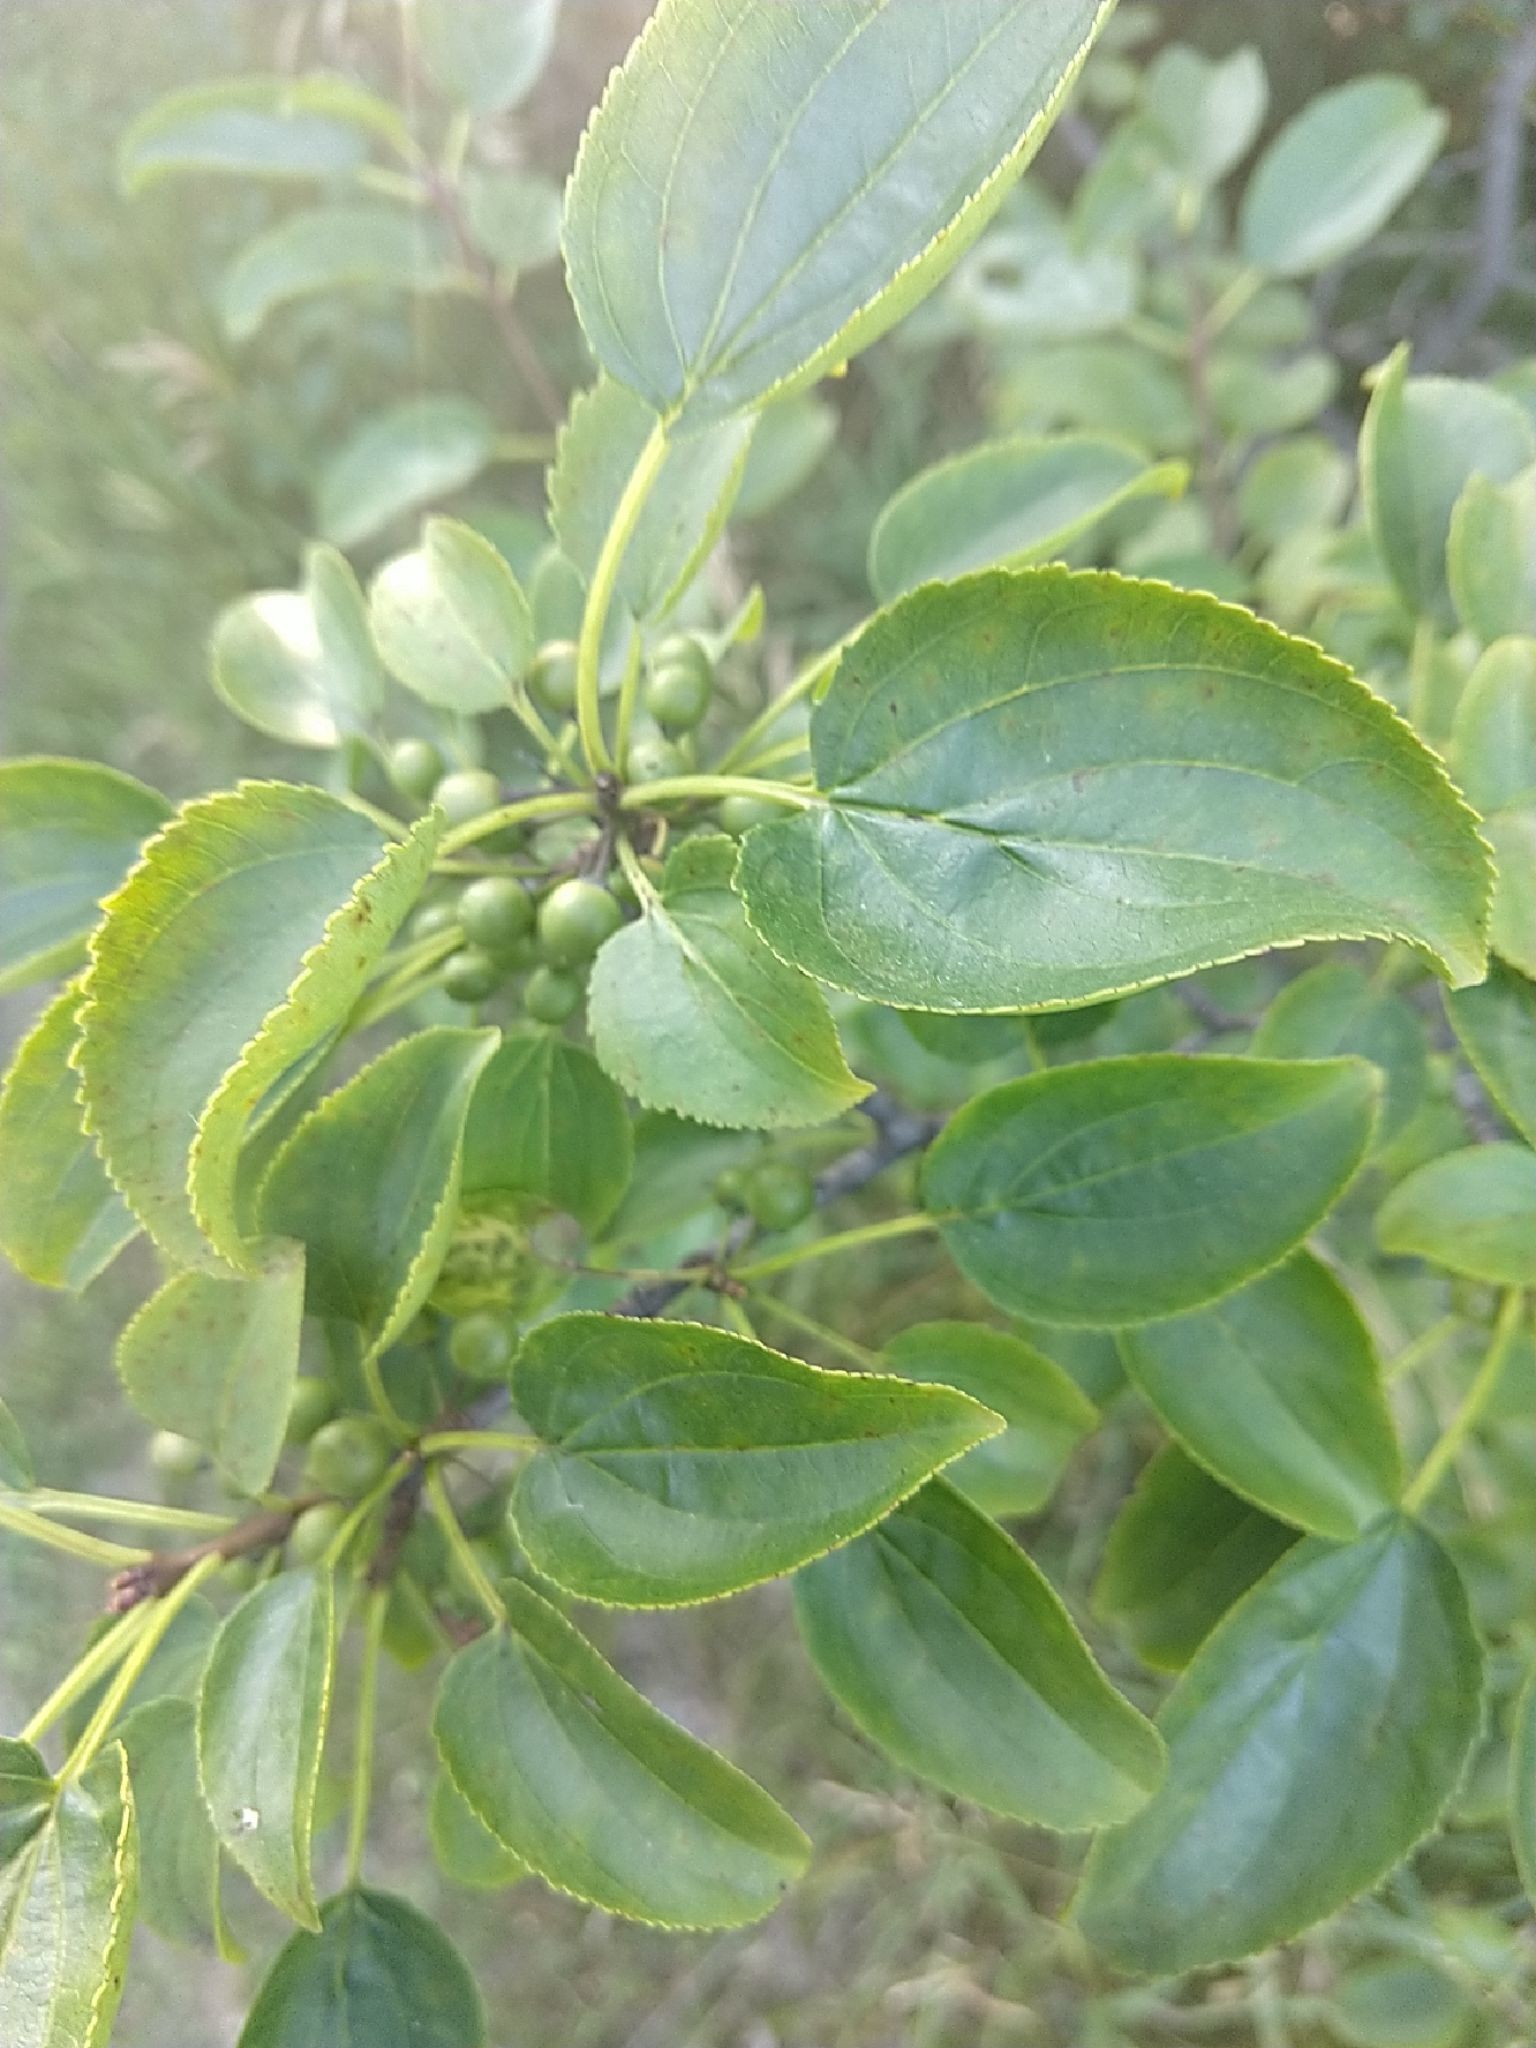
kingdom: Plantae
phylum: Tracheophyta
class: Magnoliopsida
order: Rosales
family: Rhamnaceae
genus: Rhamnus
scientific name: Rhamnus cathartica
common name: Common buckthorn
